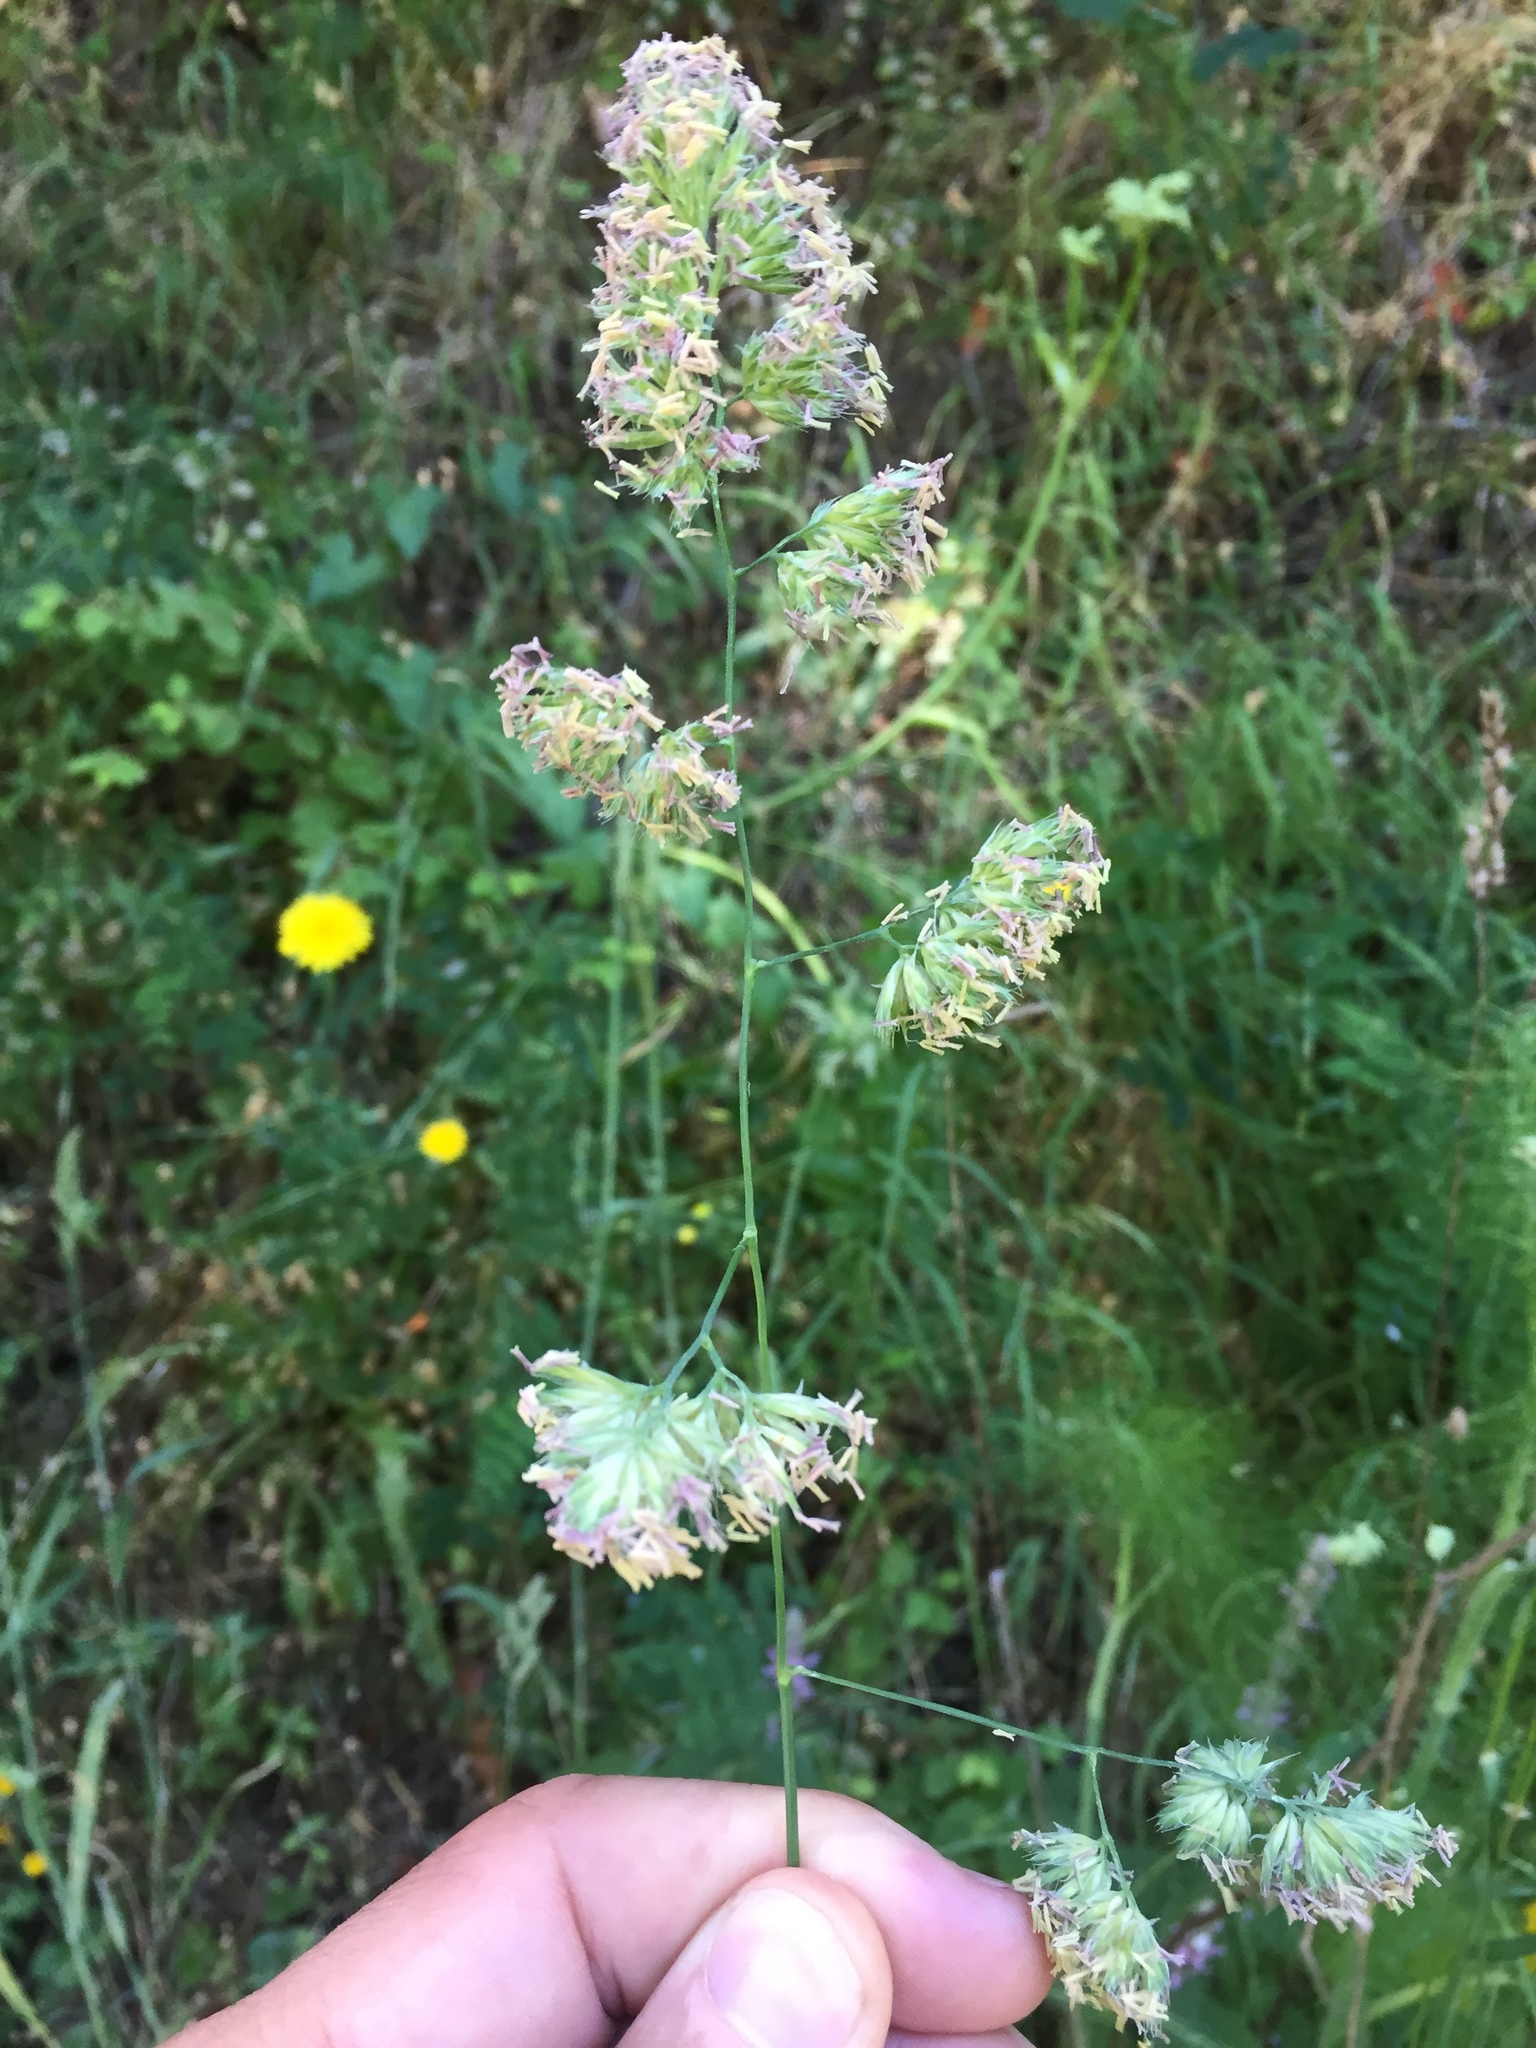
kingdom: Plantae
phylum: Tracheophyta
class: Liliopsida
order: Poales
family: Poaceae
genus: Dactylis
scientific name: Dactylis glomerata
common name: Orchardgrass
